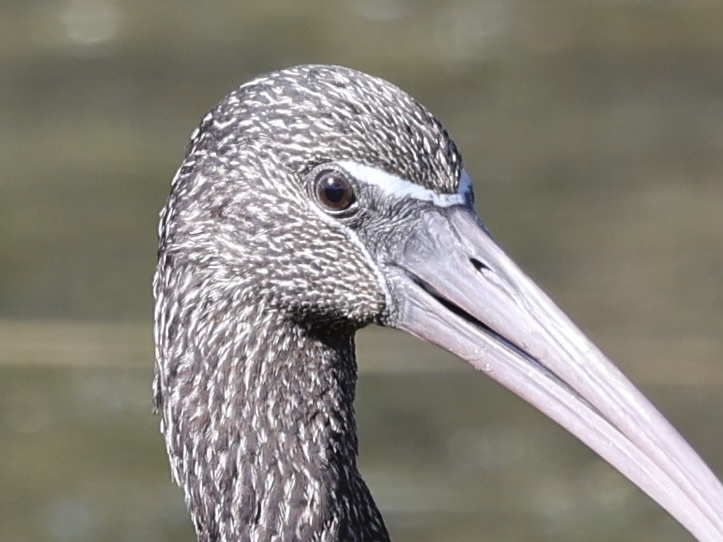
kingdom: Animalia
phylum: Chordata
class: Aves
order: Pelecaniformes
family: Threskiornithidae
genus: Plegadis
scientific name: Plegadis falcinellus
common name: Glossy ibis
